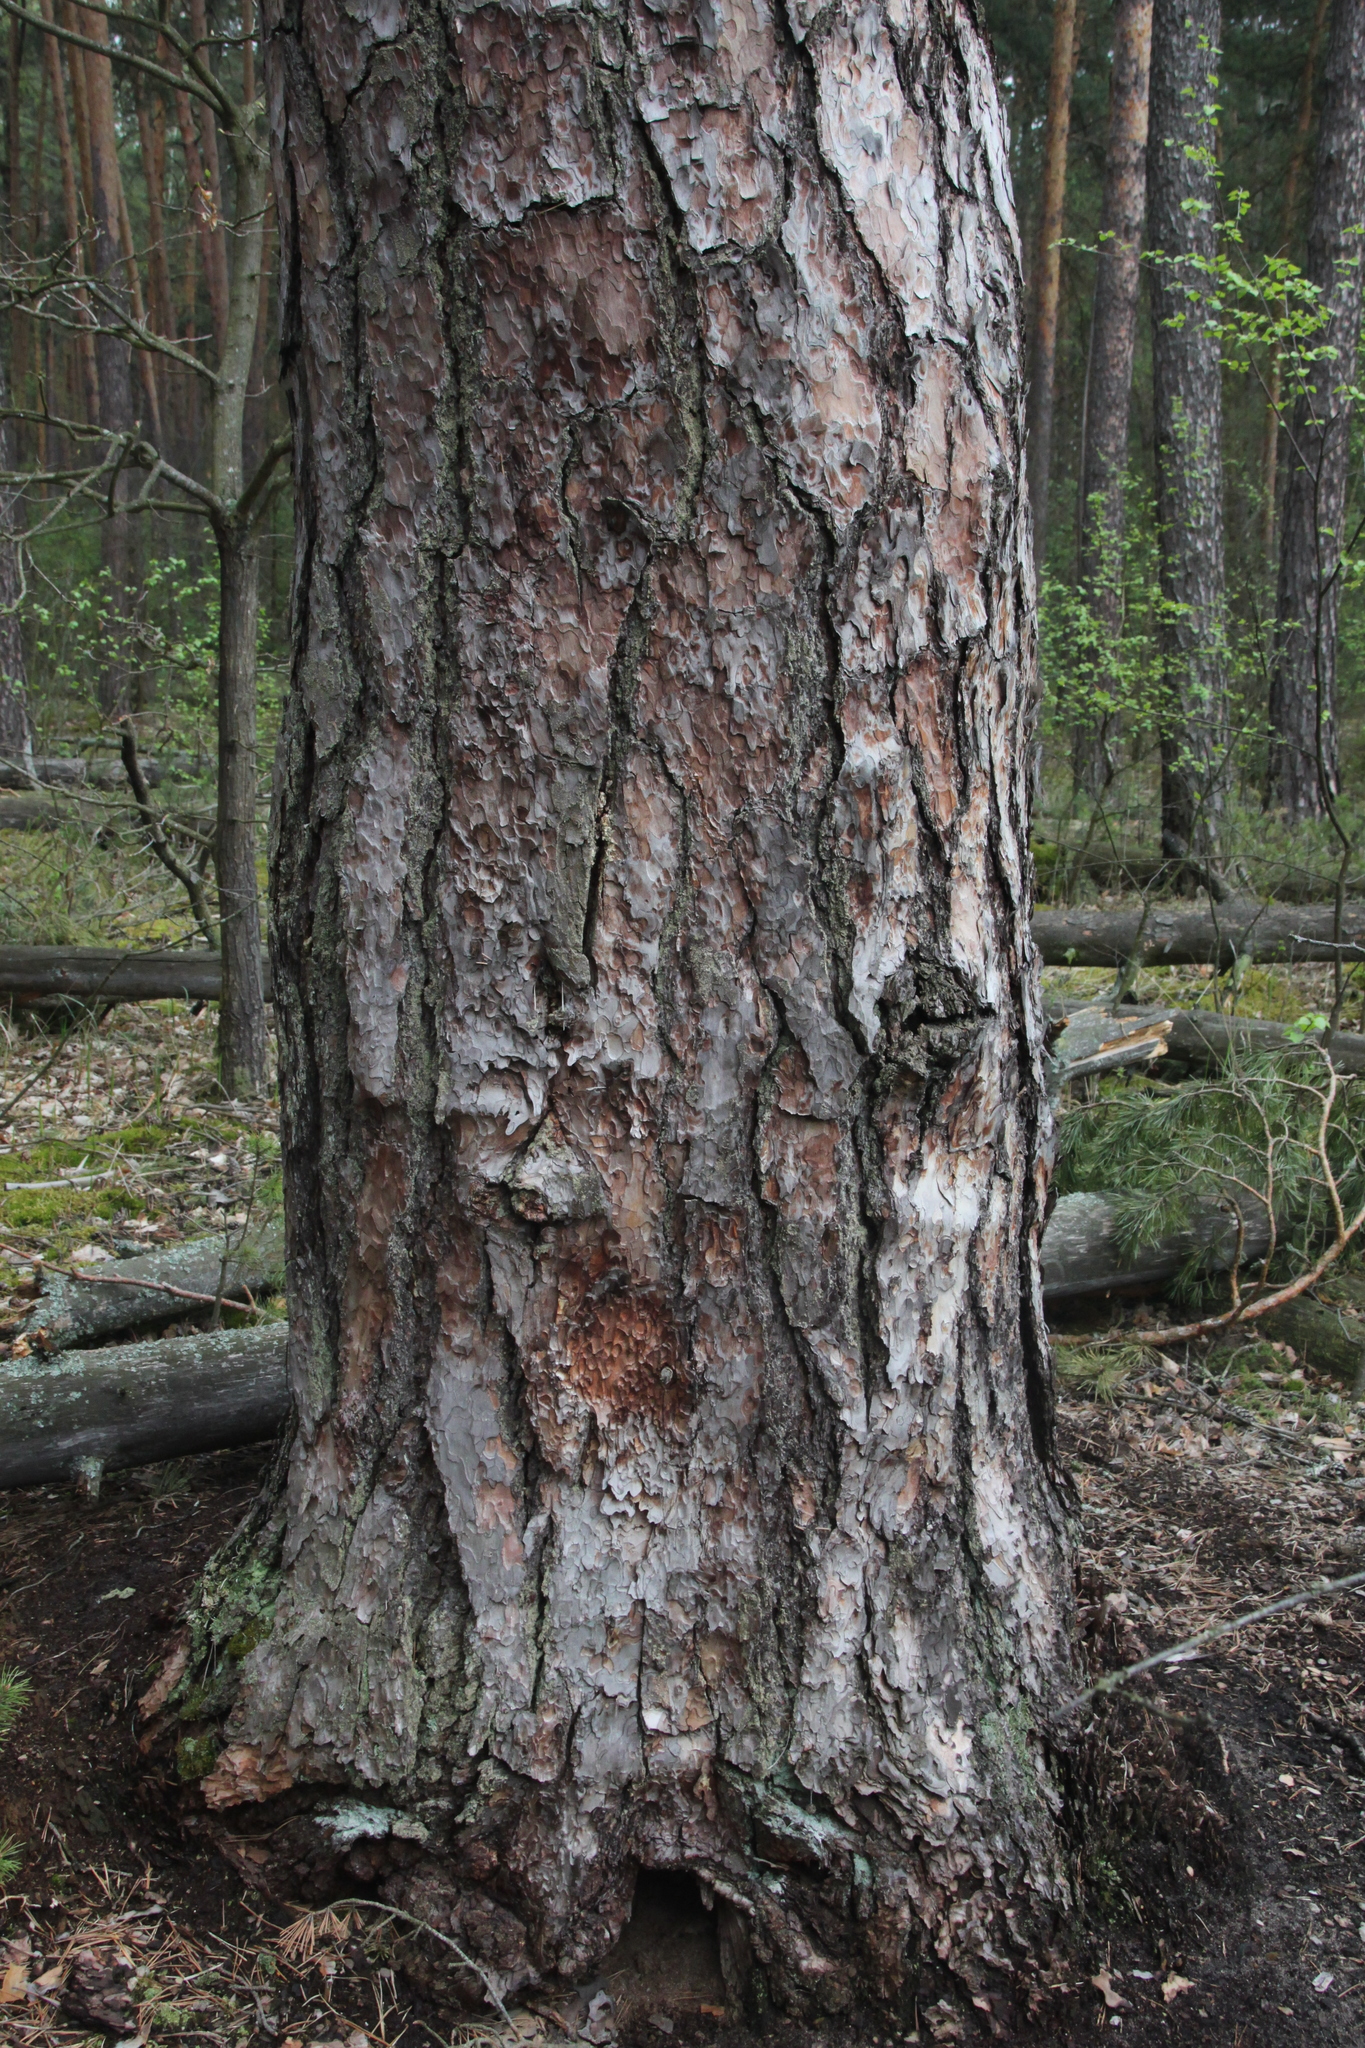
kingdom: Plantae
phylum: Tracheophyta
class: Pinopsida
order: Pinales
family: Pinaceae
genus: Pinus
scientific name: Pinus sylvestris
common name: Scots pine
